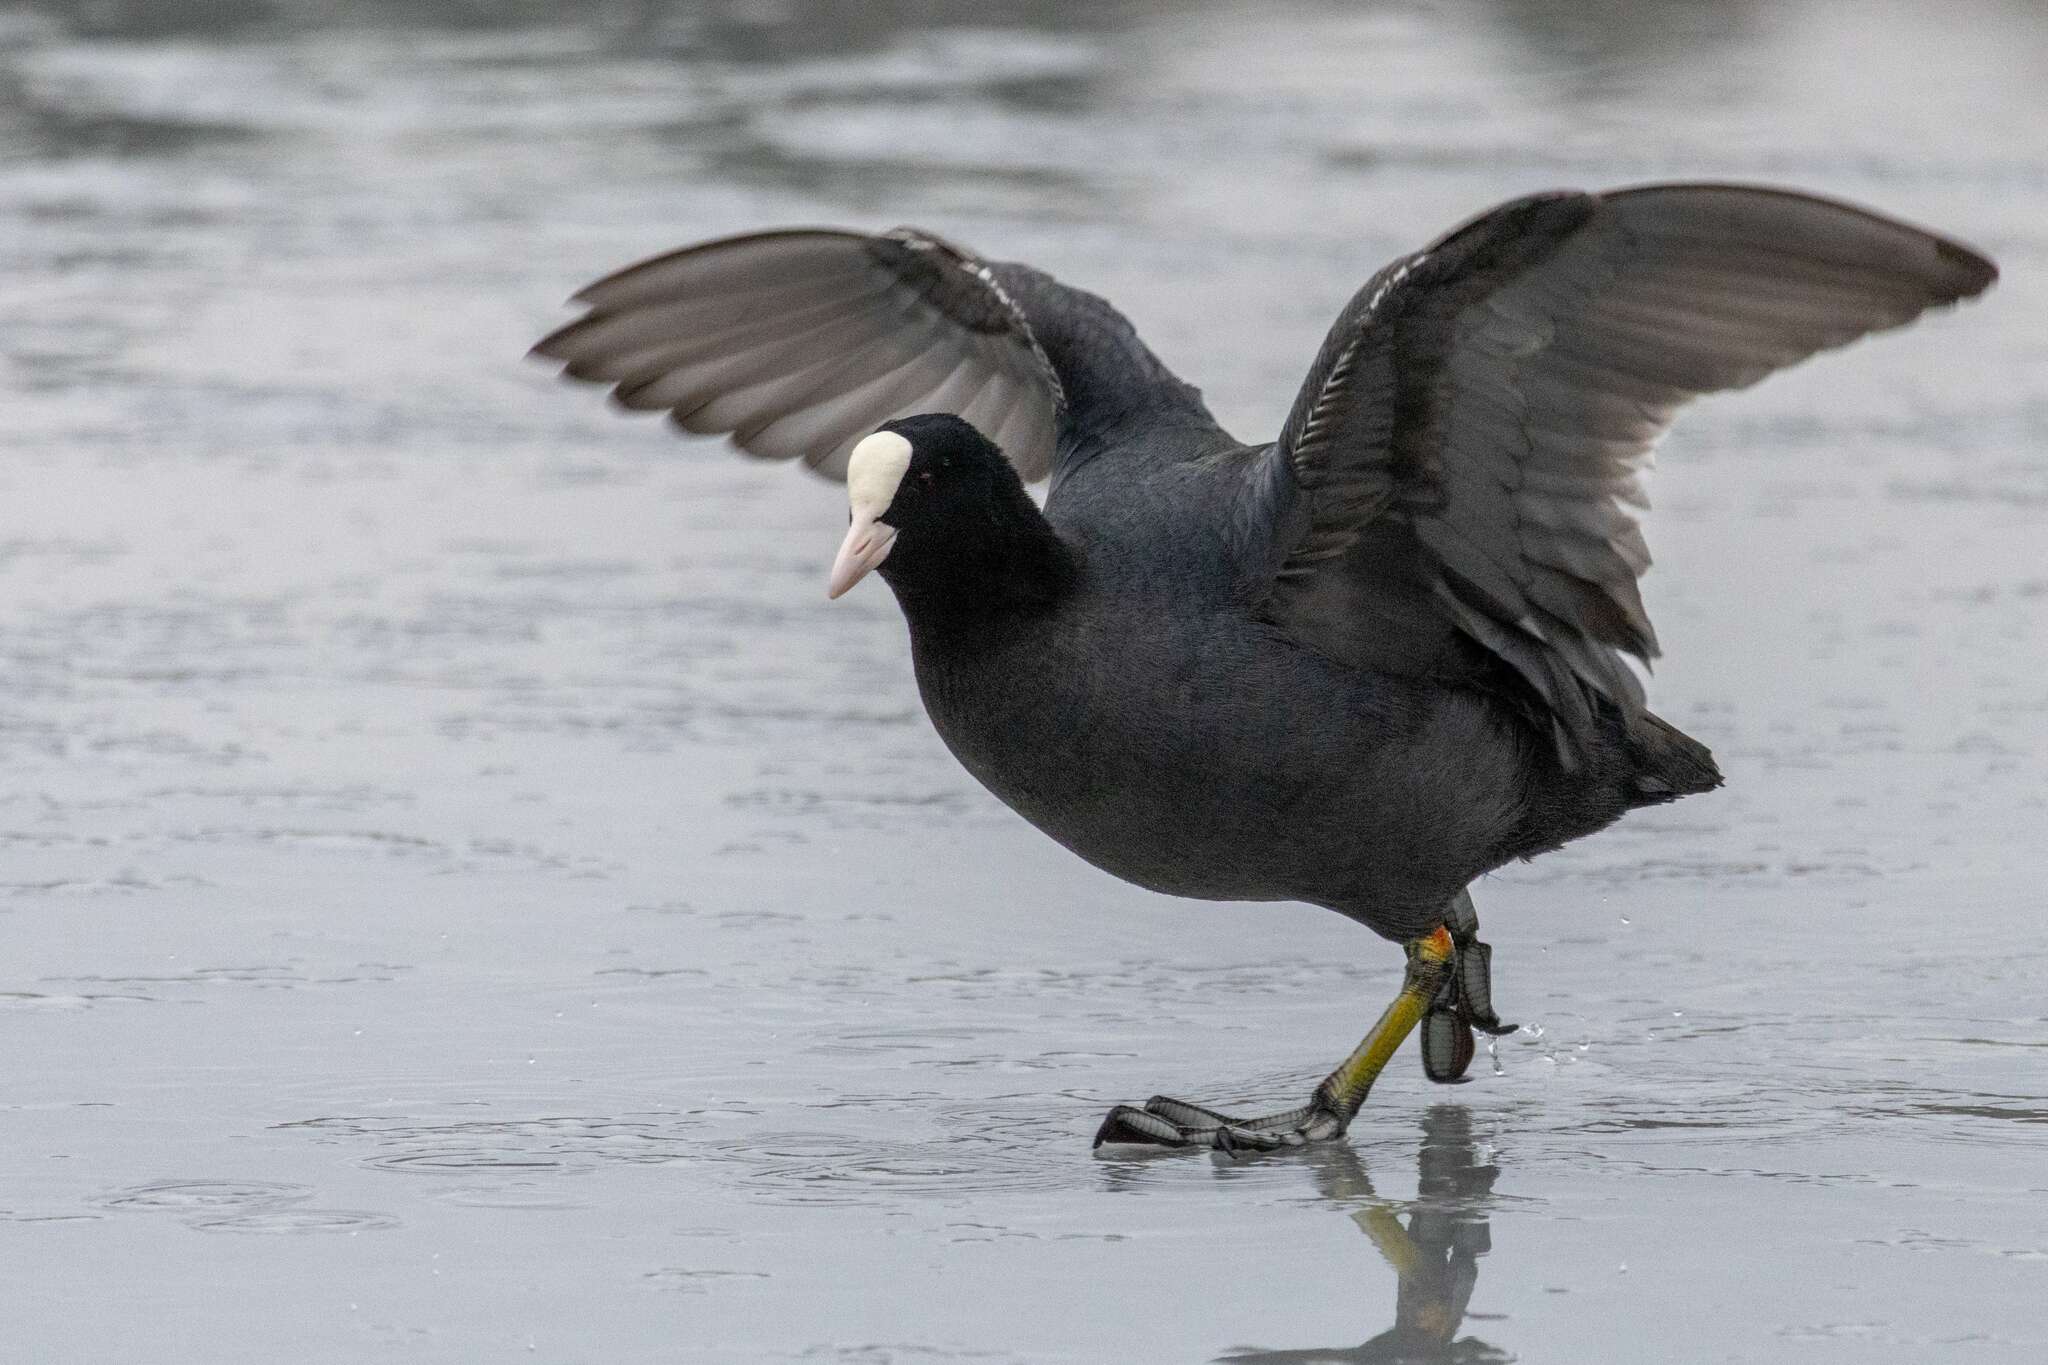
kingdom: Animalia
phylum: Chordata
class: Aves
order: Gruiformes
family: Rallidae
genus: Fulica
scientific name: Fulica atra
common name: Eurasian coot
